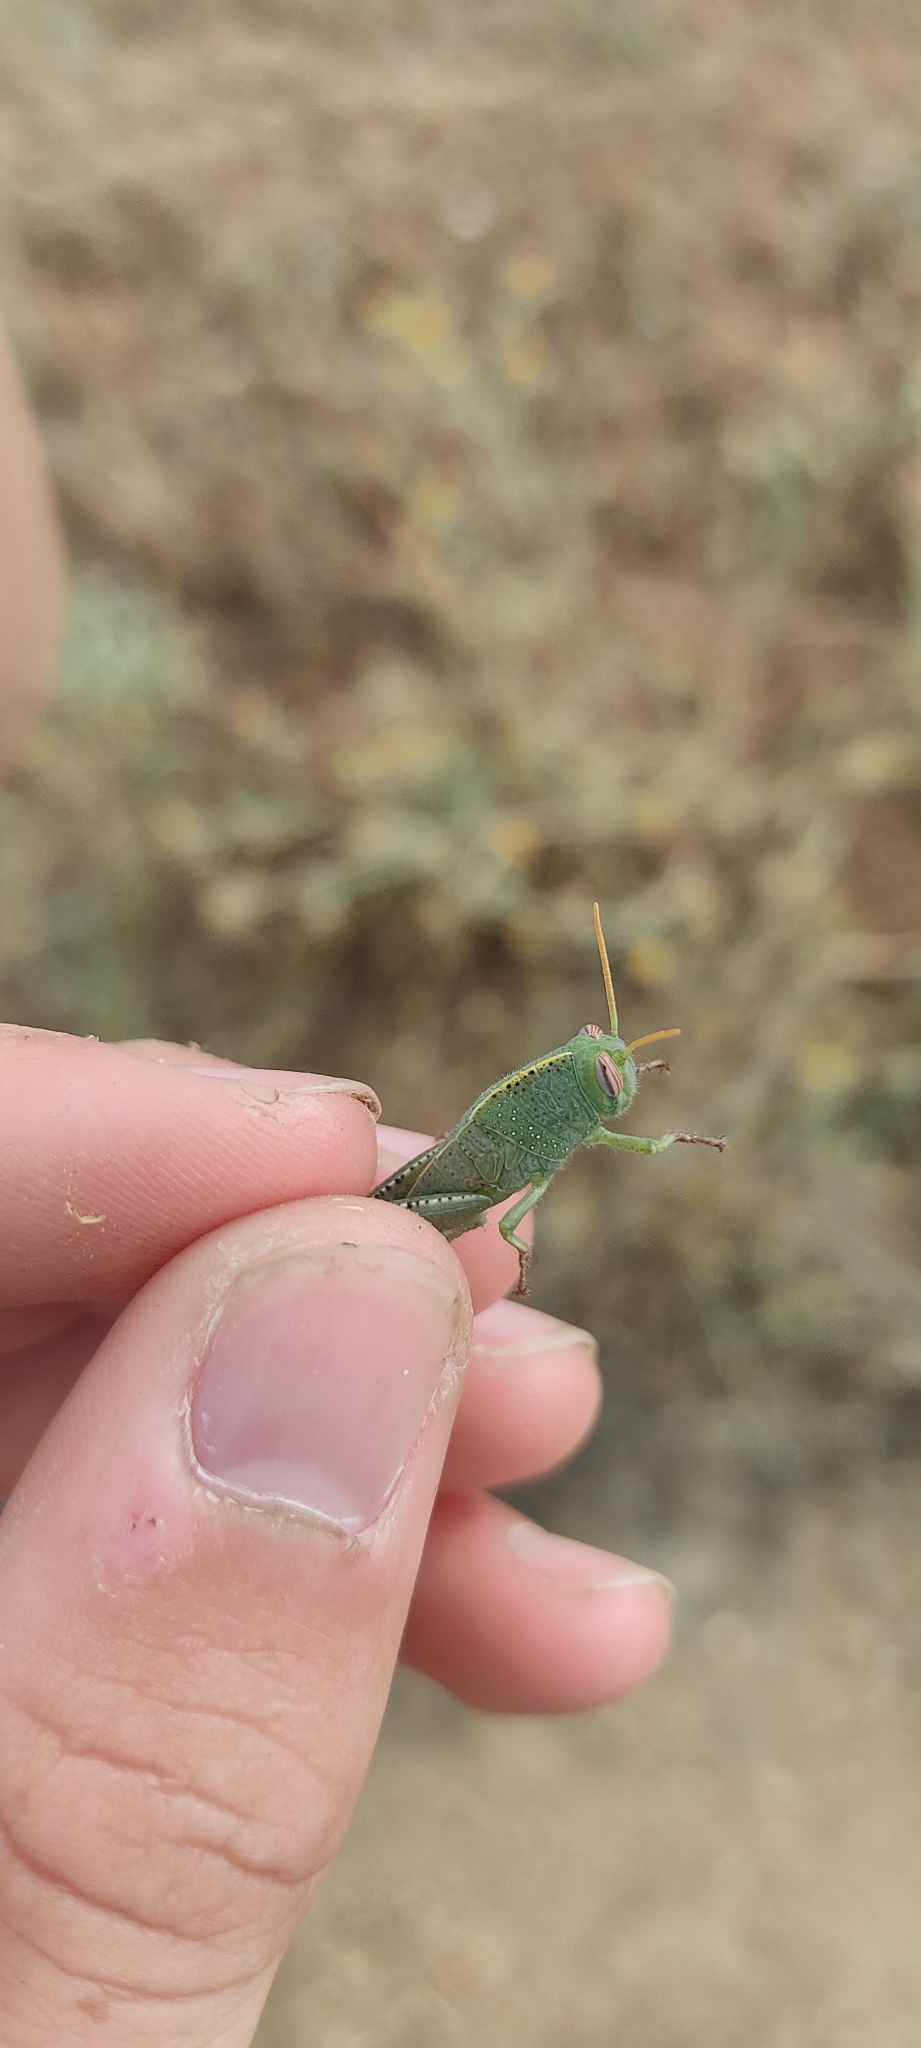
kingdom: Animalia
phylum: Arthropoda
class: Insecta
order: Orthoptera
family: Acrididae
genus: Anacridium
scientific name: Anacridium aegyptium
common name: Egyptian grasshopper
